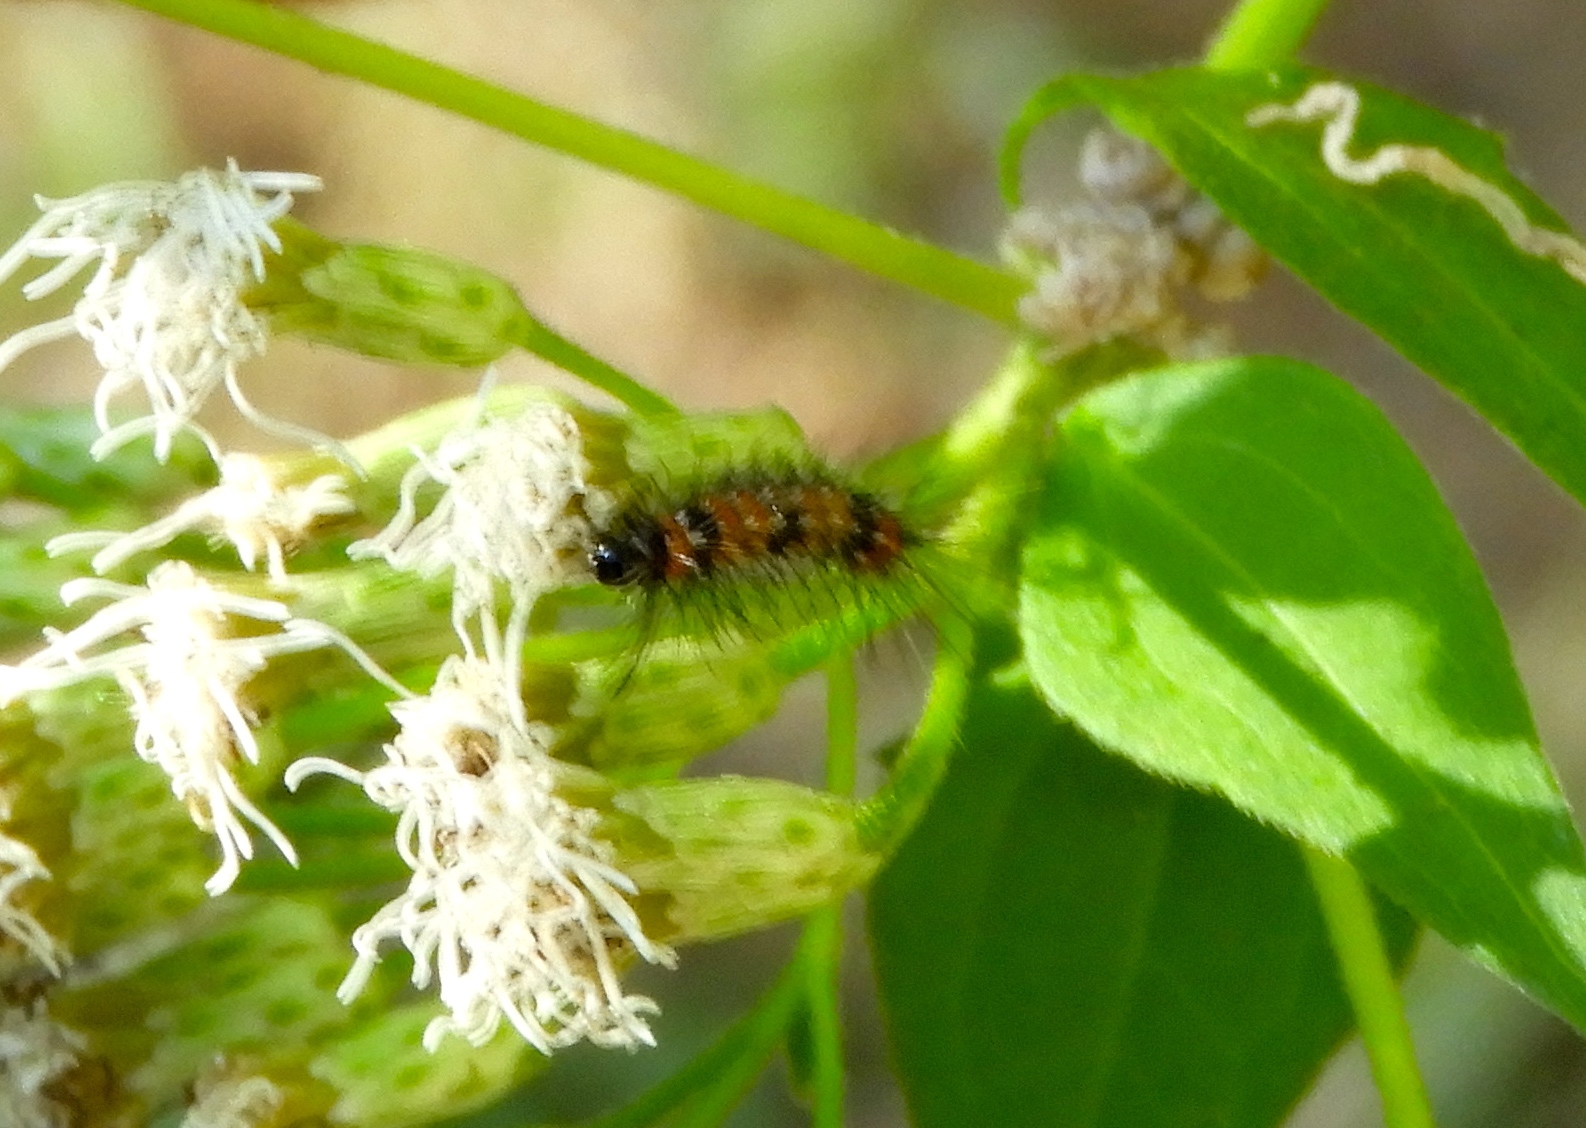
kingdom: Animalia
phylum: Arthropoda
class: Insecta
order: Lepidoptera
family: Erebidae
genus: Pareuchaetes
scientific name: Pareuchaetes insulata
